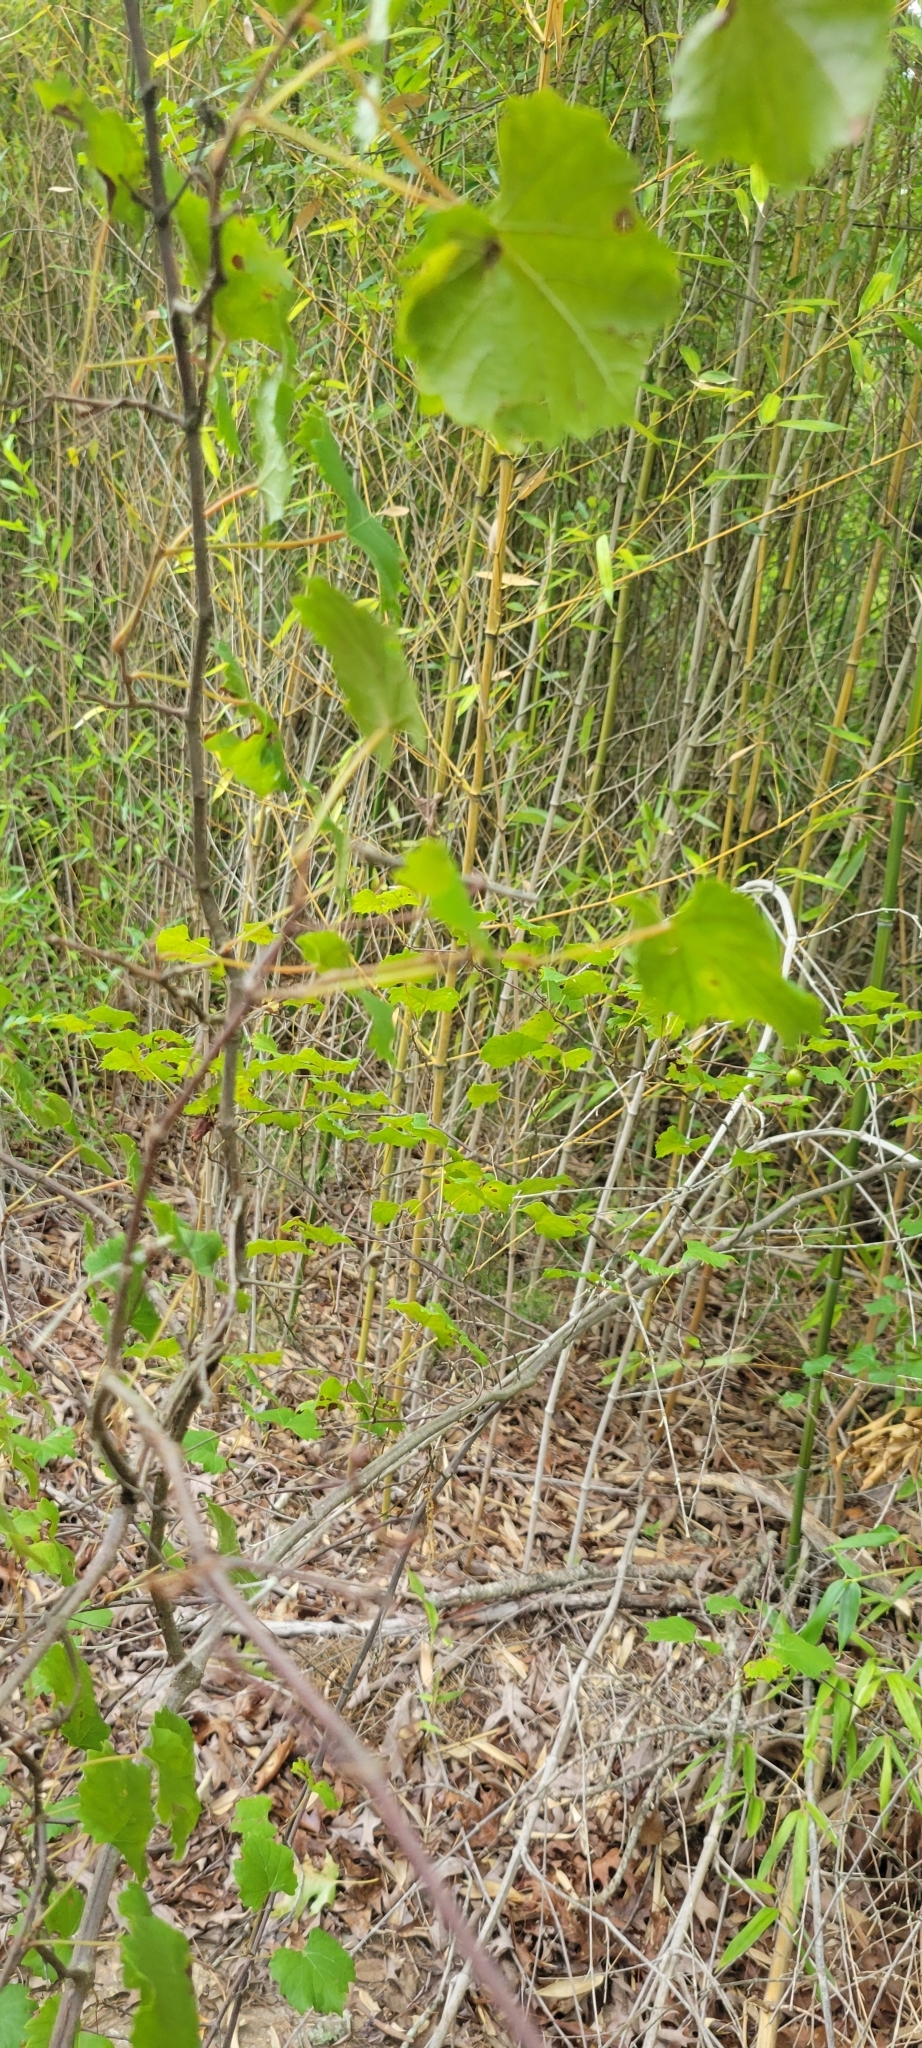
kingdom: Plantae
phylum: Tracheophyta
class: Magnoliopsida
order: Vitales
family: Vitaceae
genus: Vitis
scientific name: Vitis rotundifolia
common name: Muscadine grape
